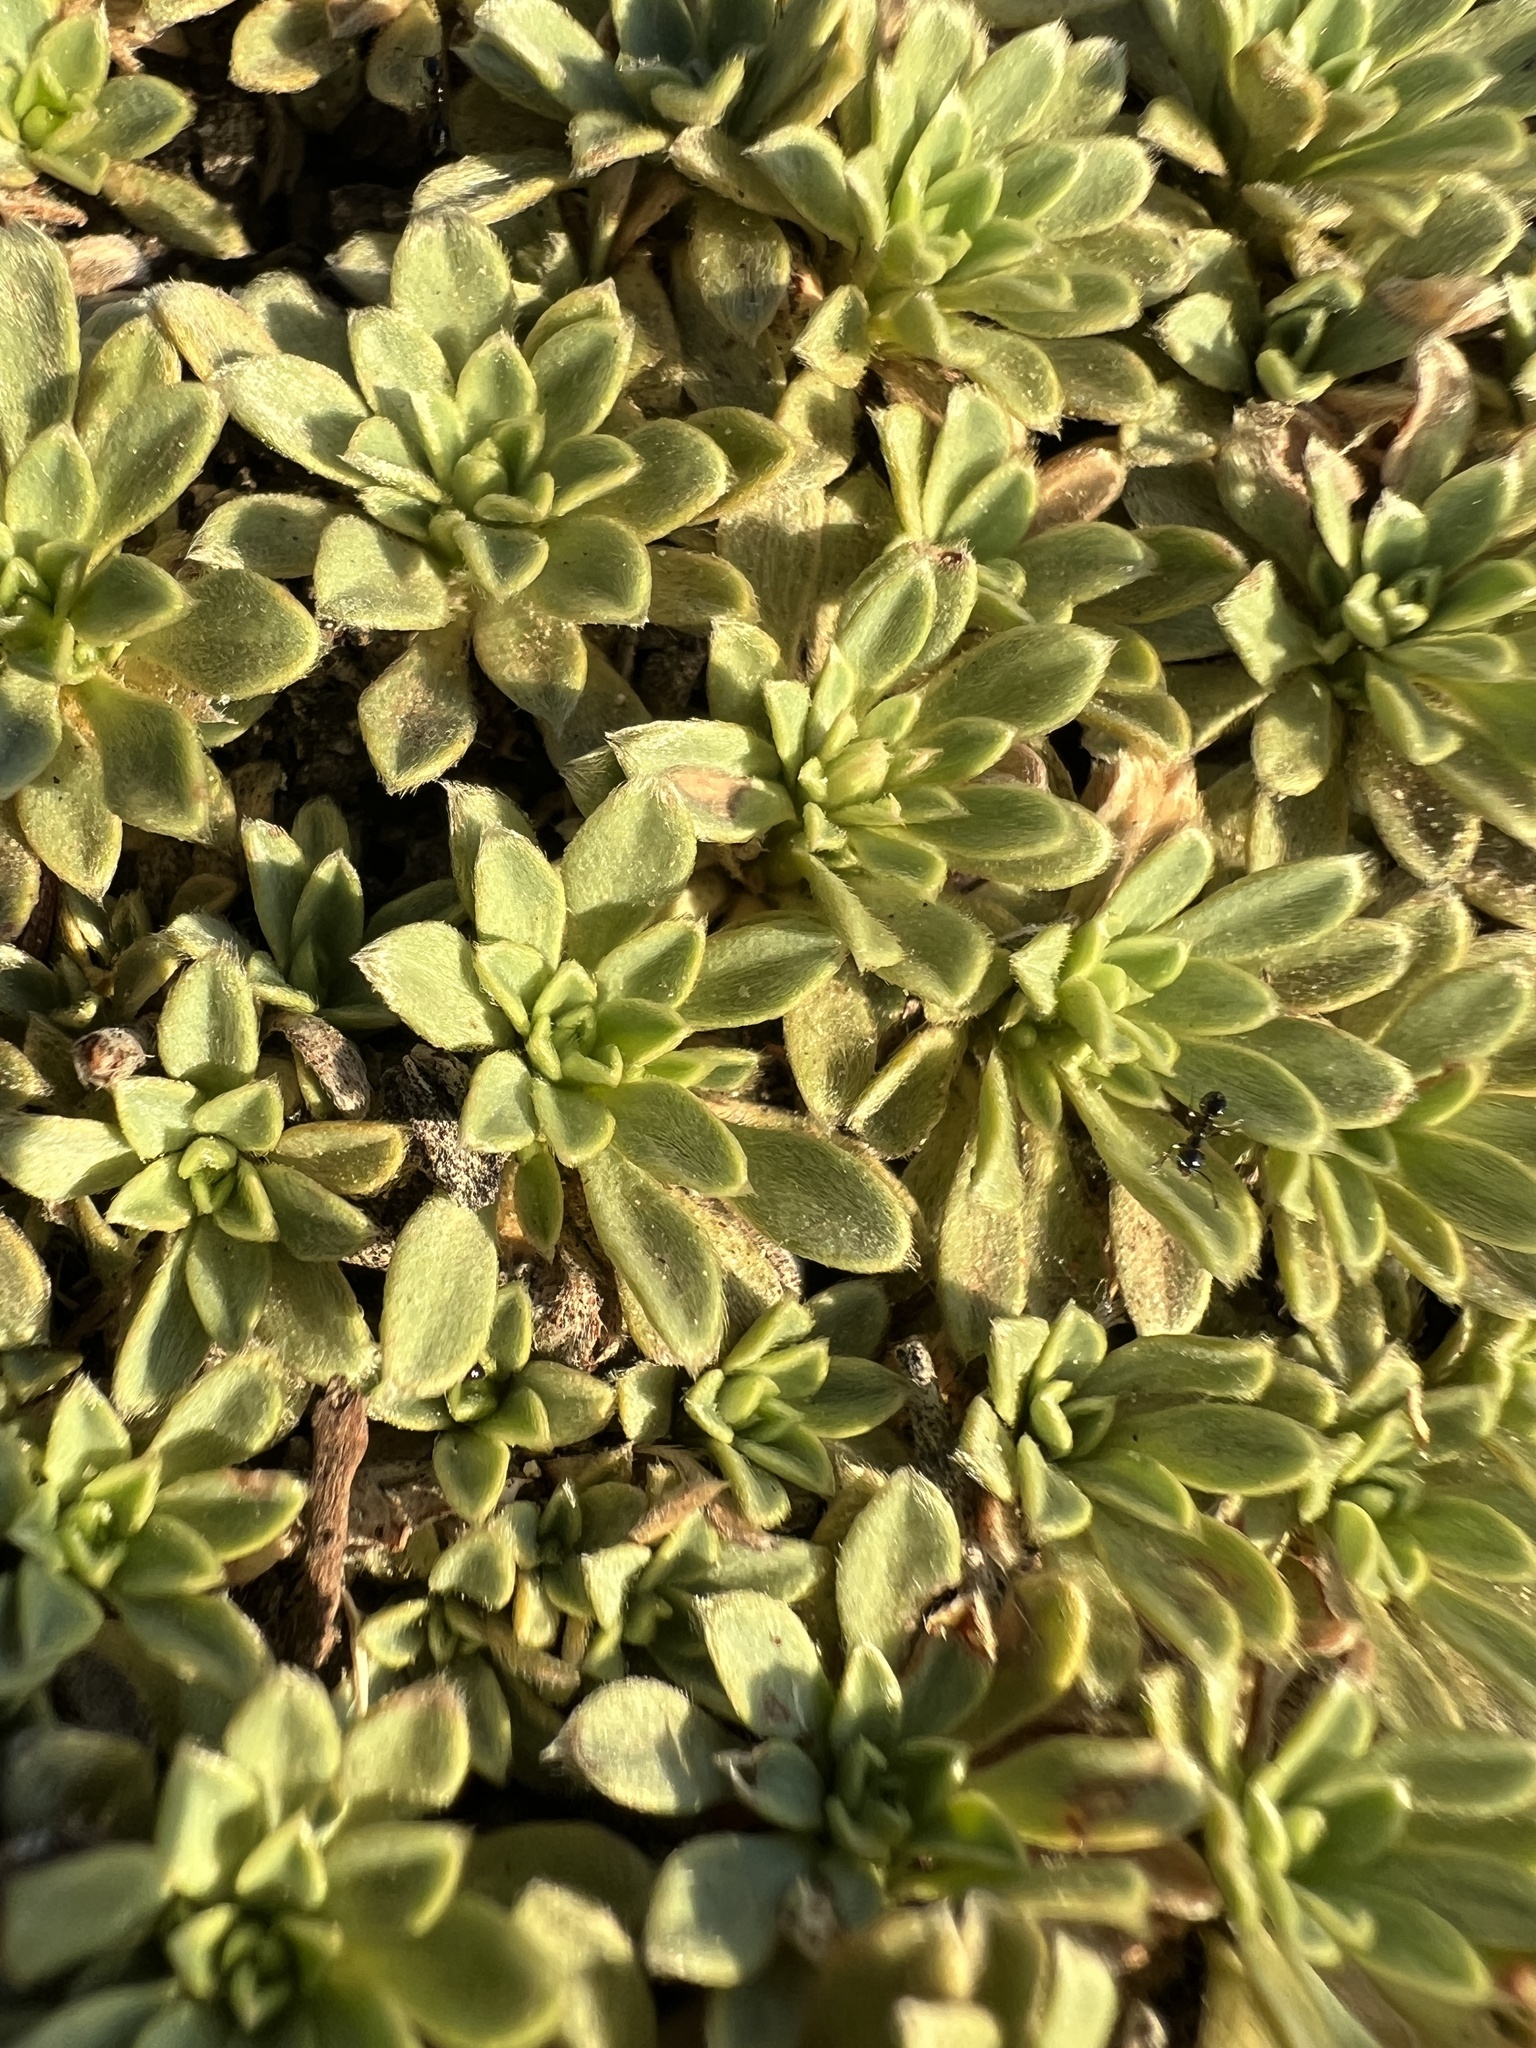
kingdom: Plantae
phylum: Tracheophyta
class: Magnoliopsida
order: Rosales
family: Rosaceae
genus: Petrophytum
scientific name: Petrophytum caespitosum
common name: Mat rockspirea
